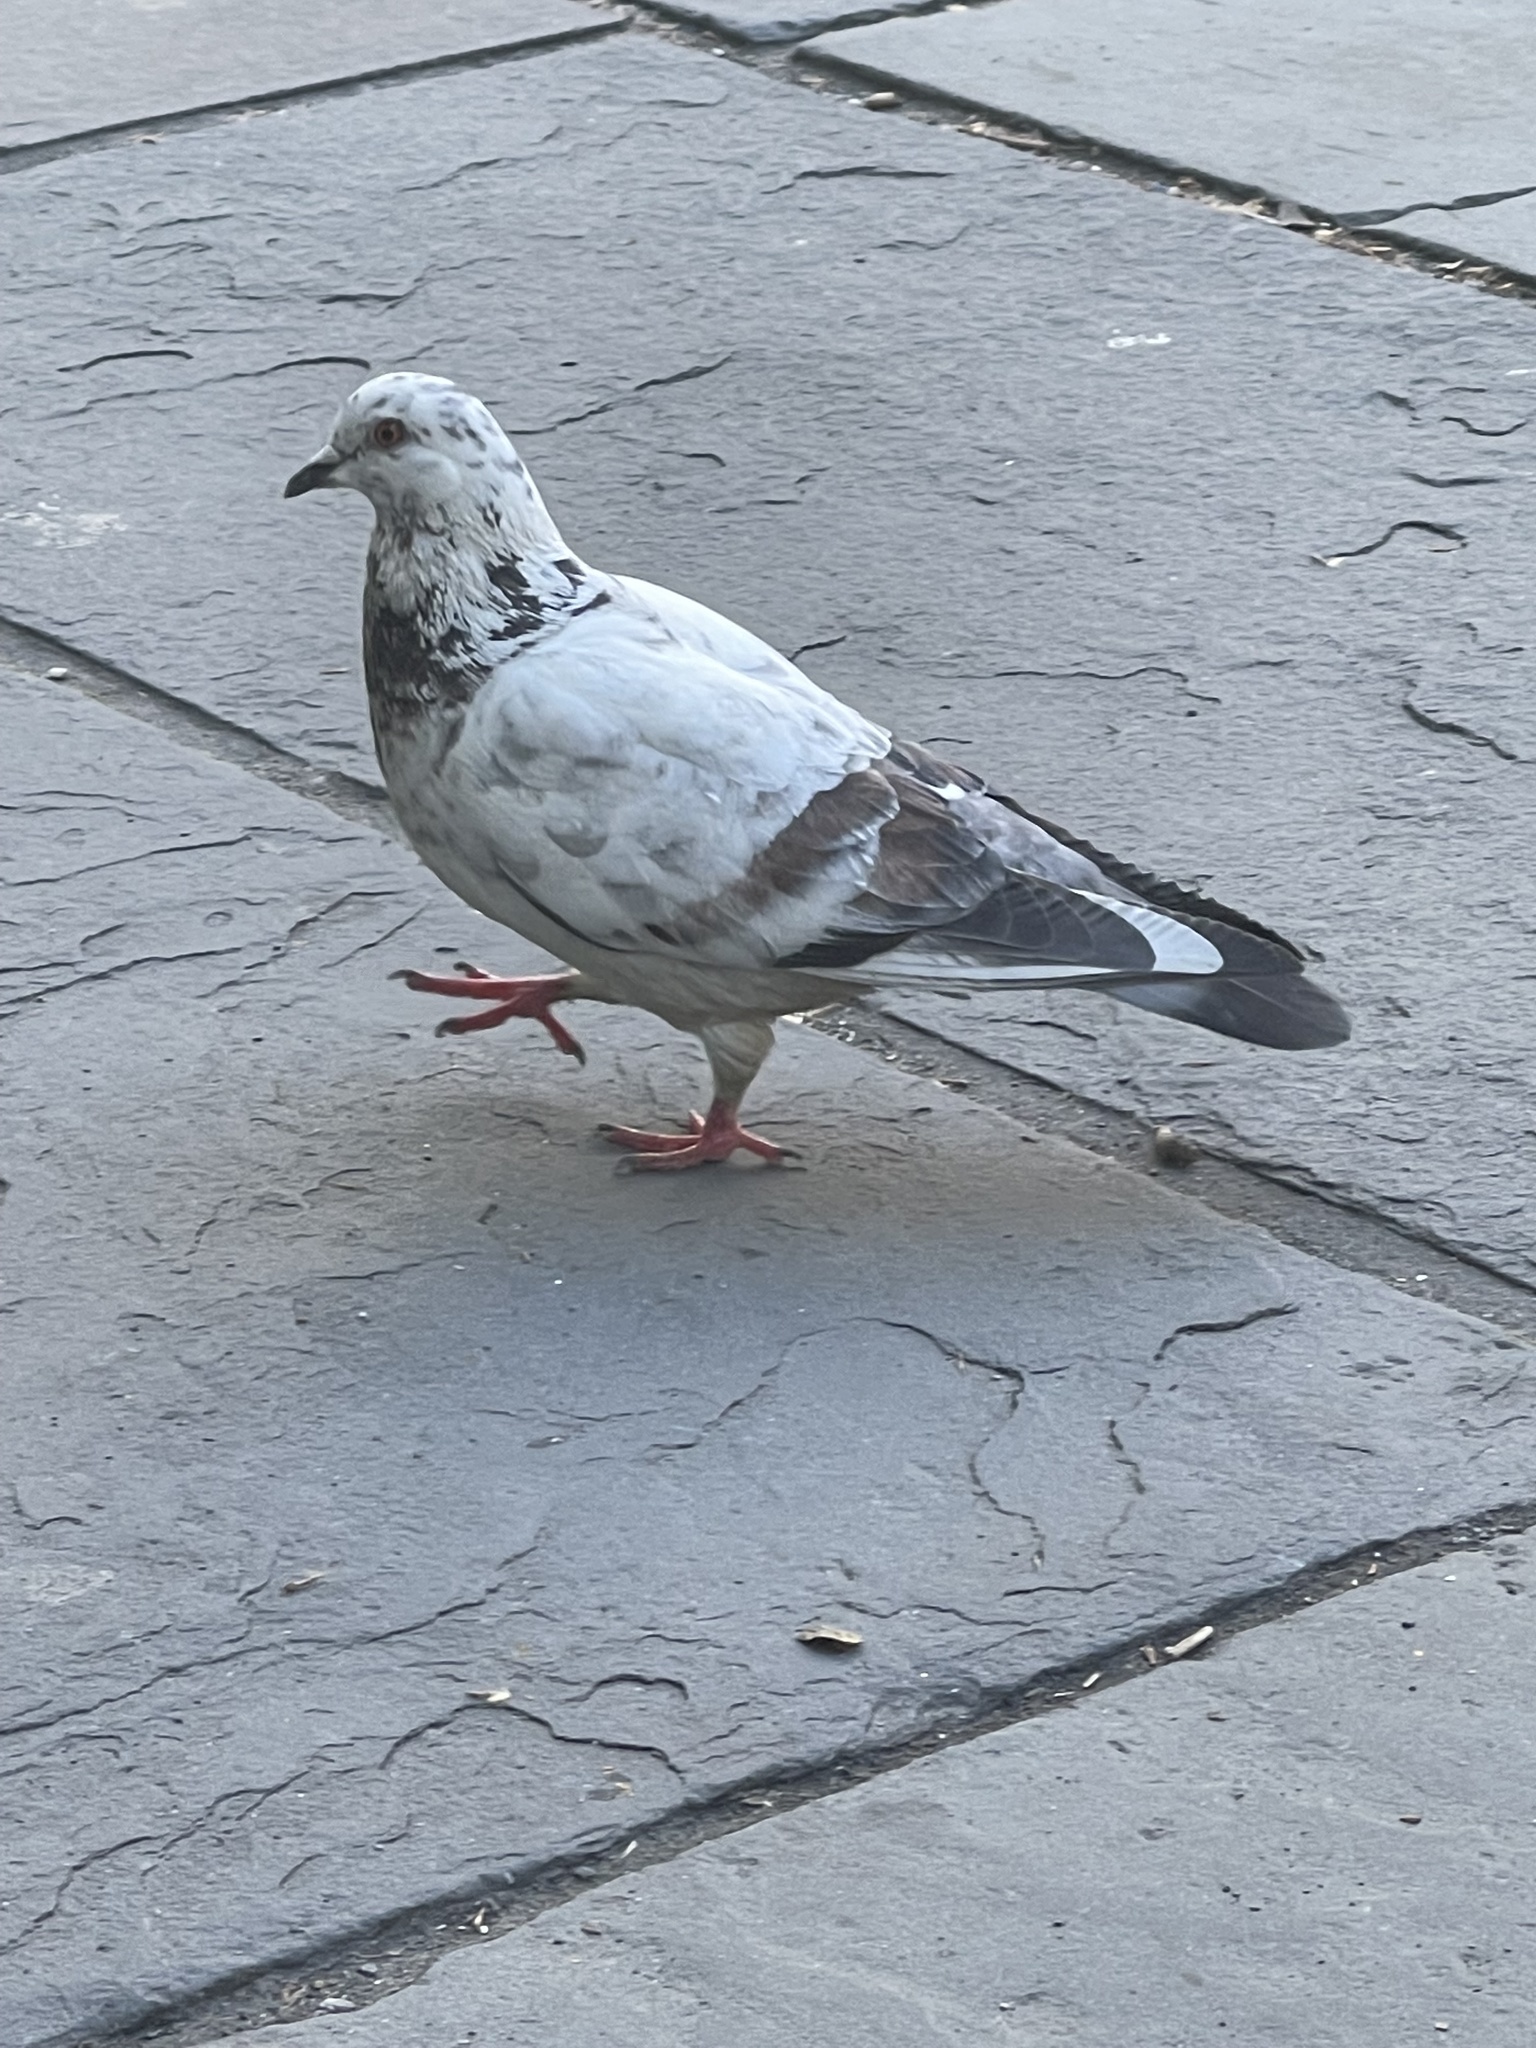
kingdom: Animalia
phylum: Chordata
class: Aves
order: Columbiformes
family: Columbidae
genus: Columba
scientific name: Columba livia
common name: Rock pigeon
